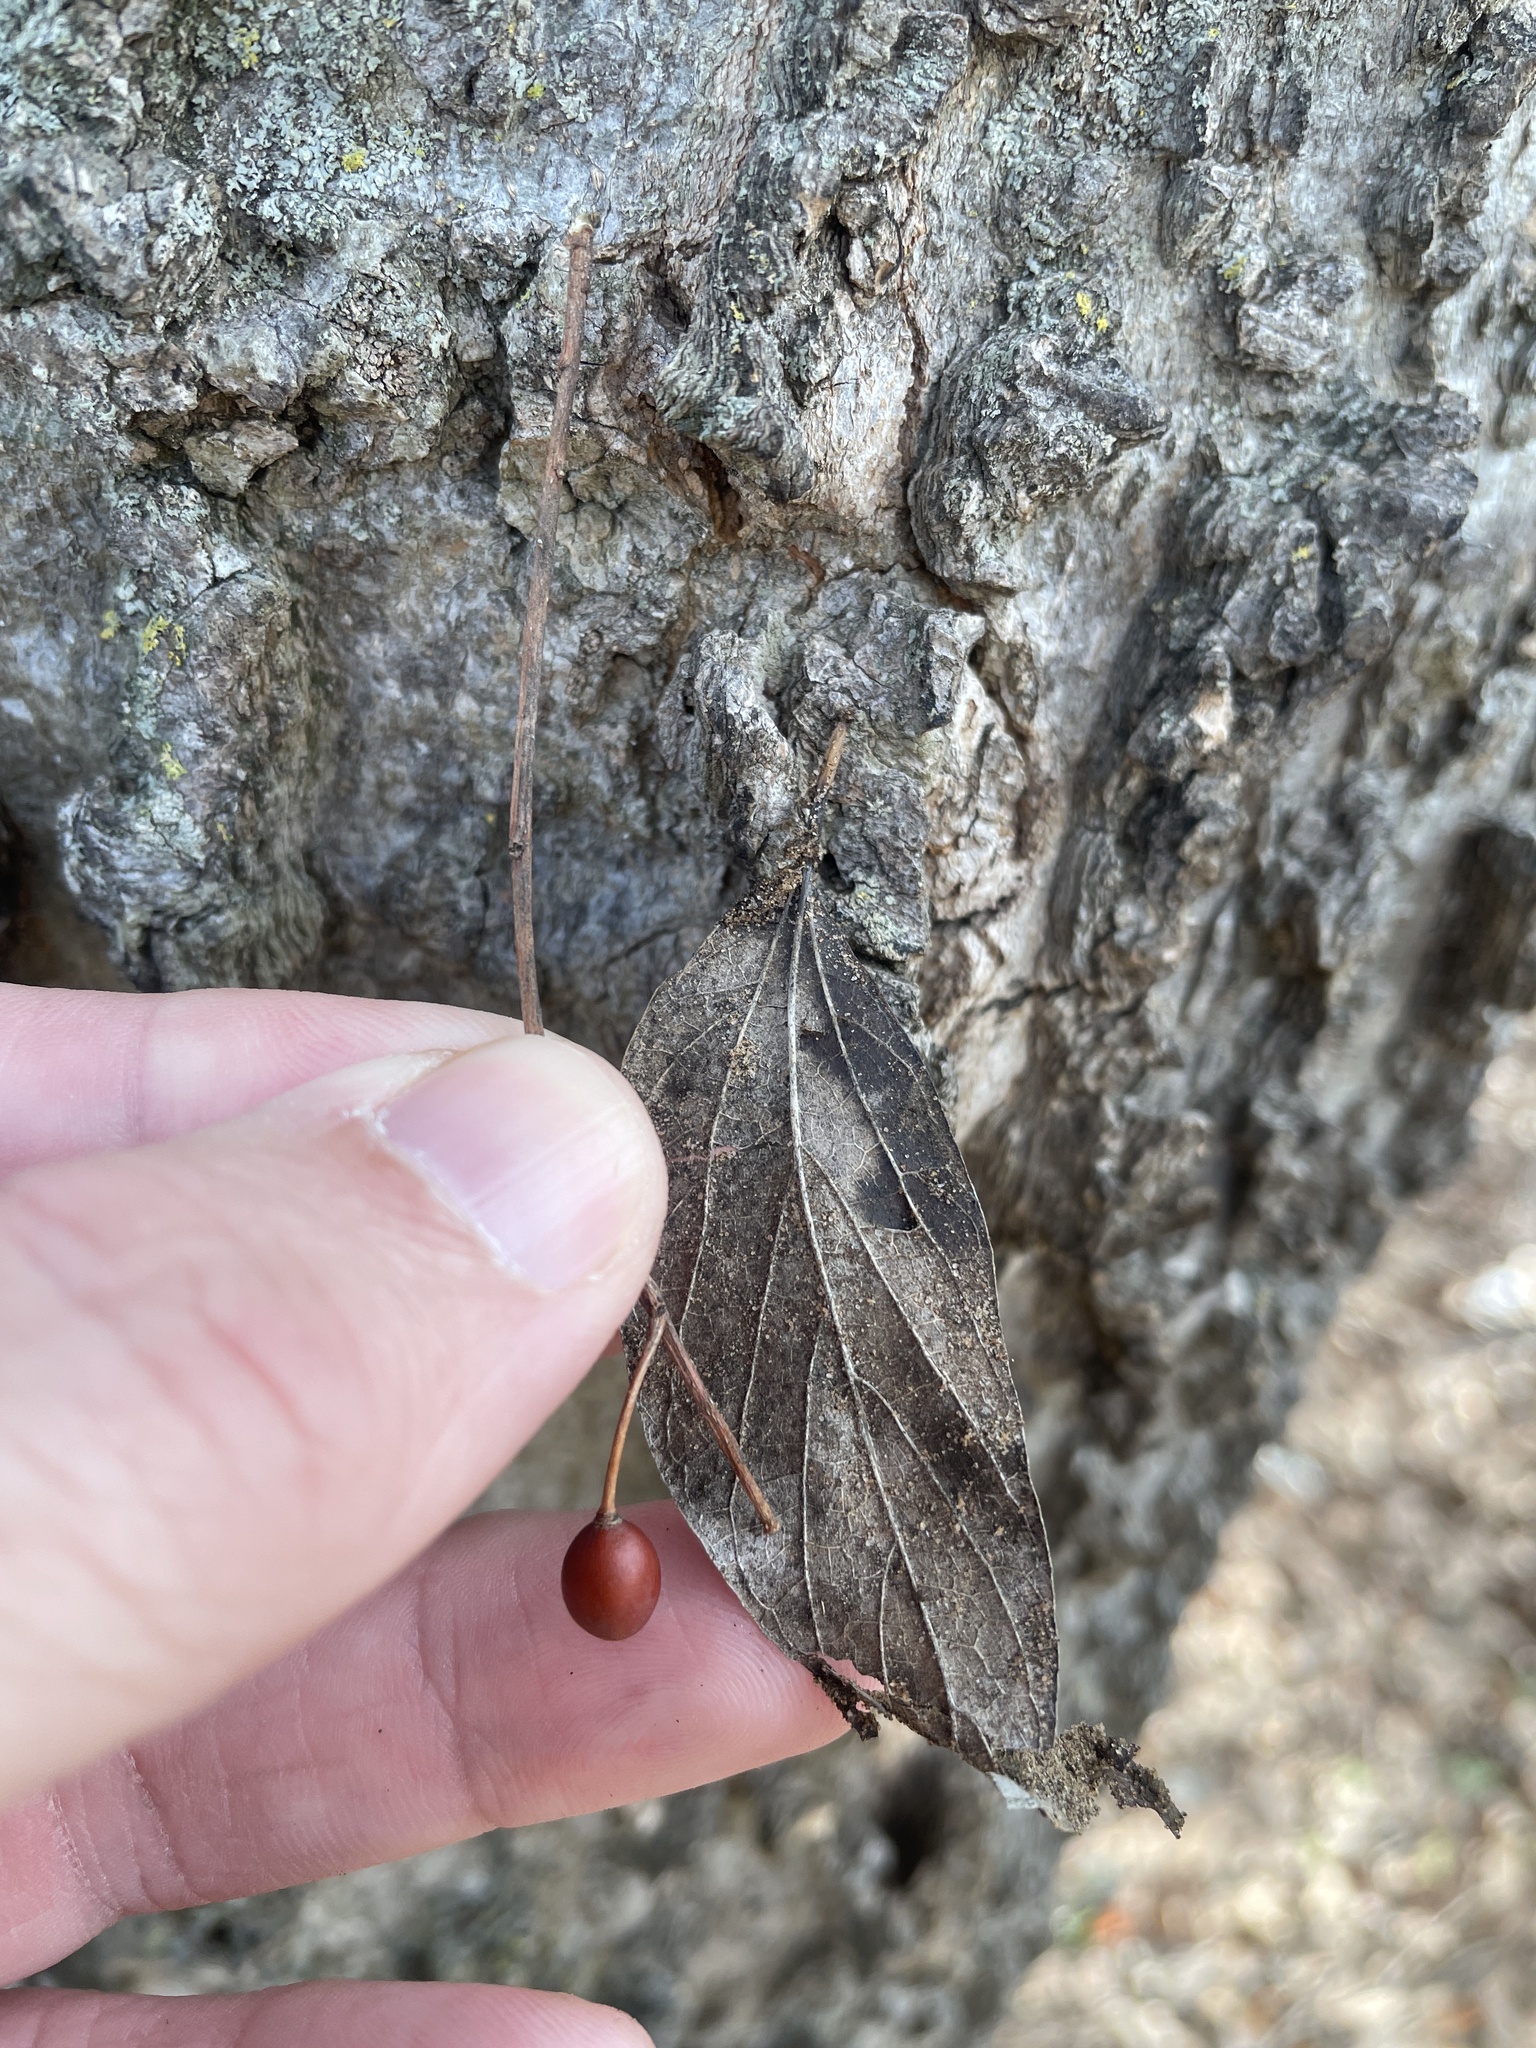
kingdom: Plantae
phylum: Tracheophyta
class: Magnoliopsida
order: Rosales
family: Cannabaceae
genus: Celtis
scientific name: Celtis laevigata
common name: Sugarberry
